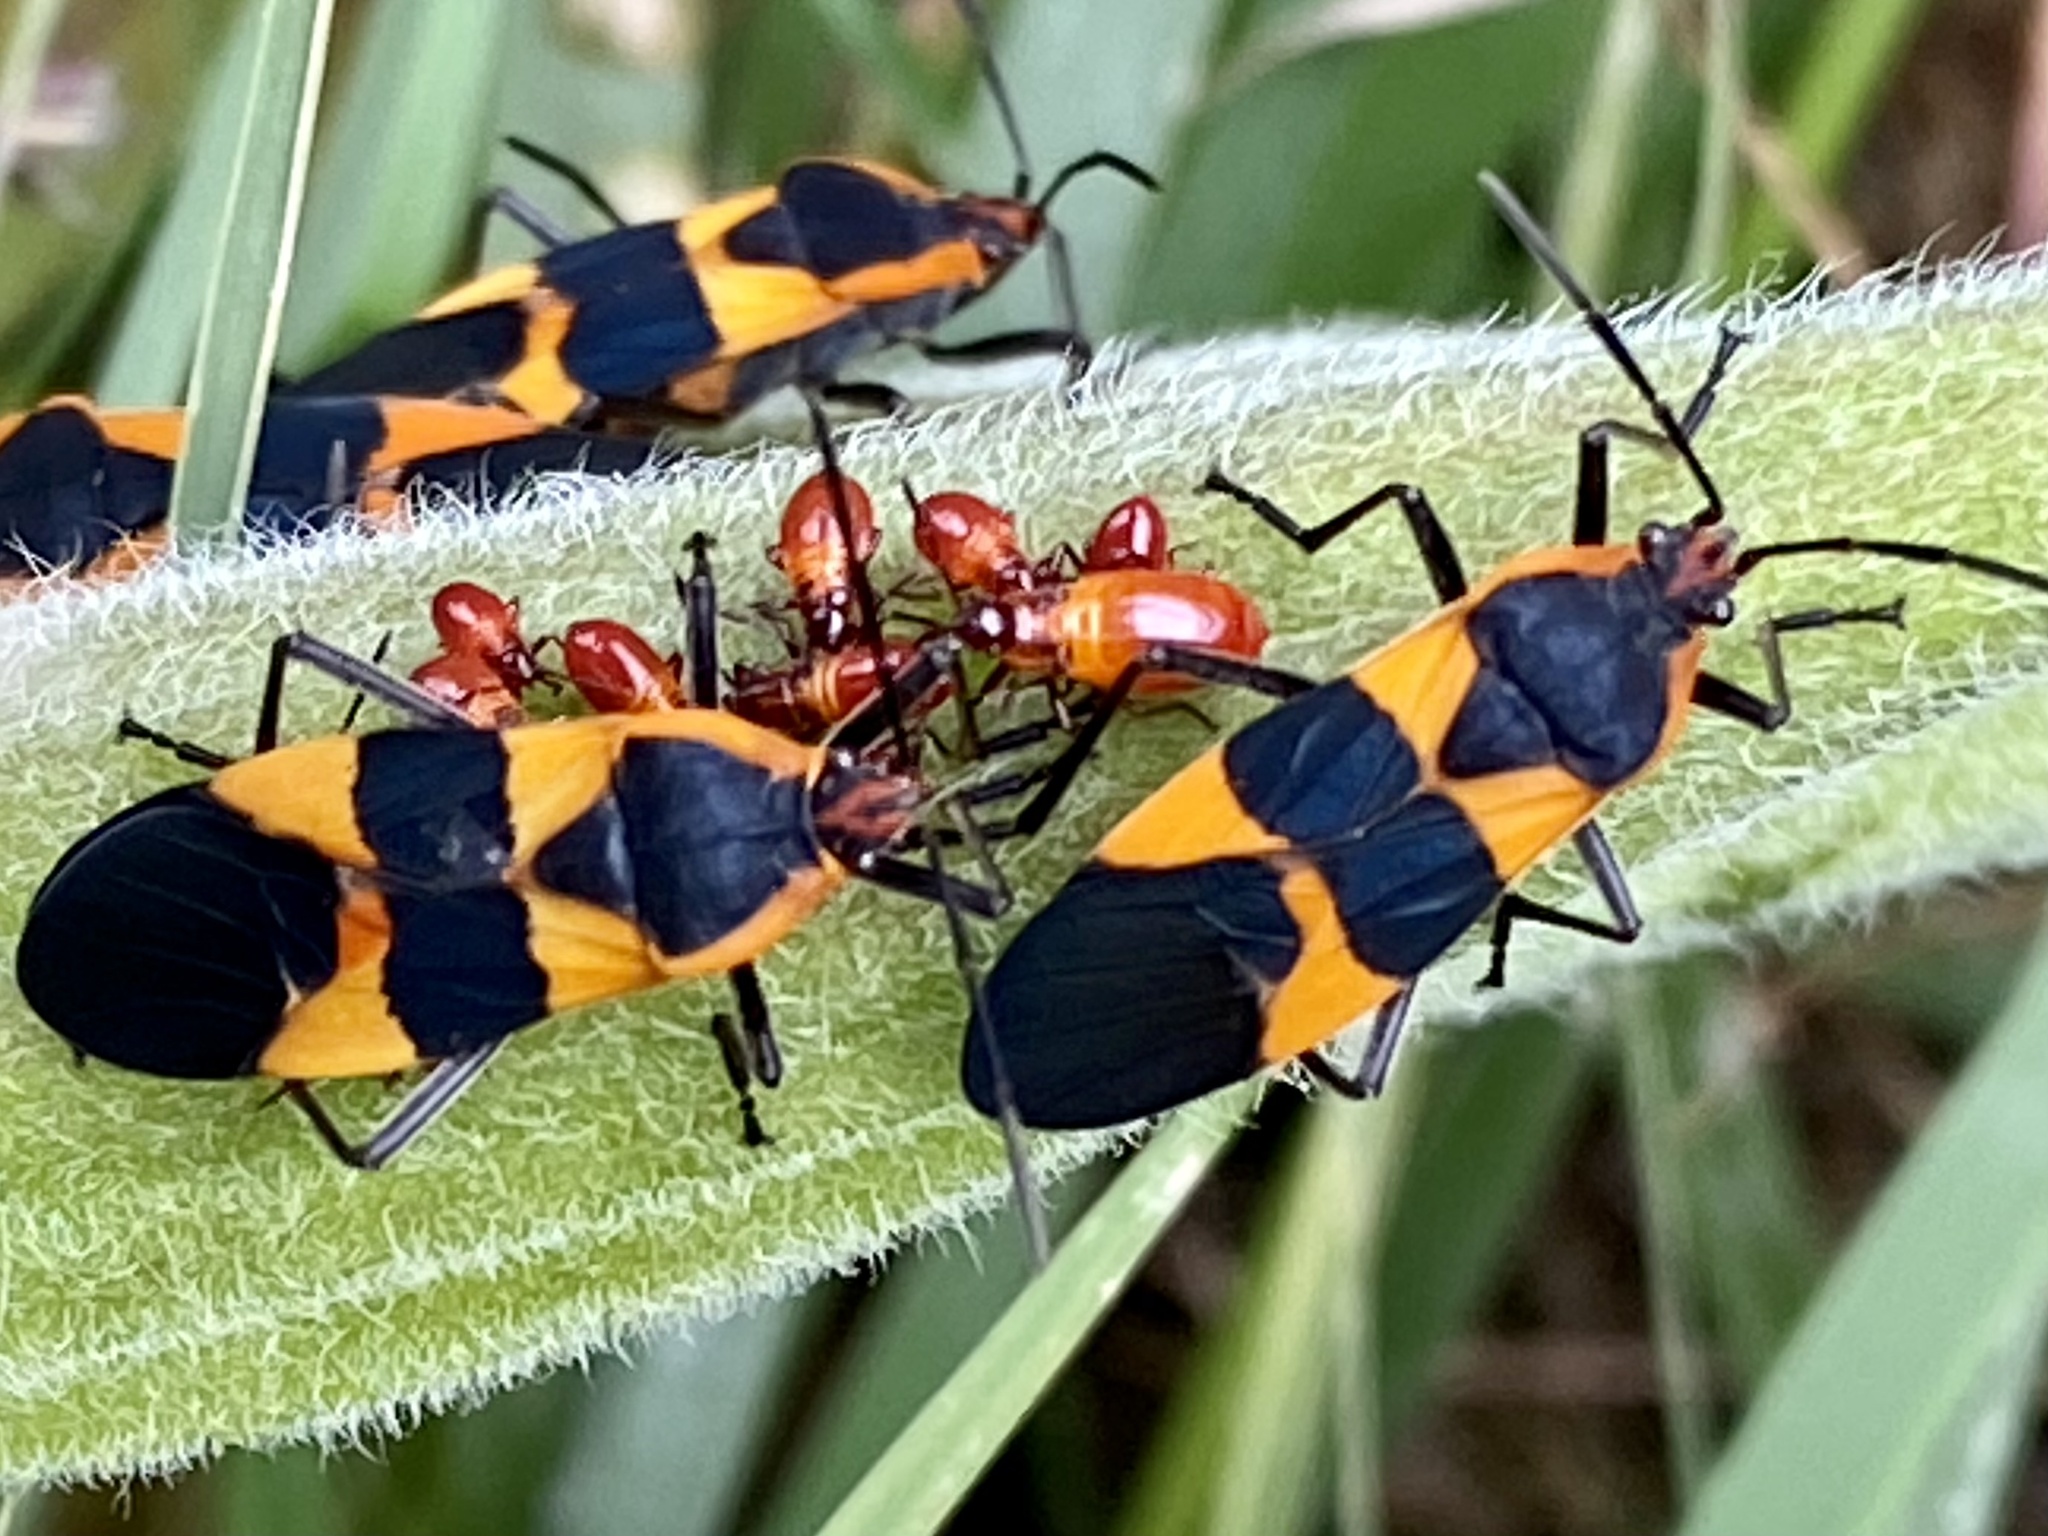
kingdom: Animalia
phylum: Arthropoda
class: Insecta
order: Hemiptera
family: Lygaeidae
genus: Oncopeltus
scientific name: Oncopeltus fasciatus
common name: Large milkweed bug
